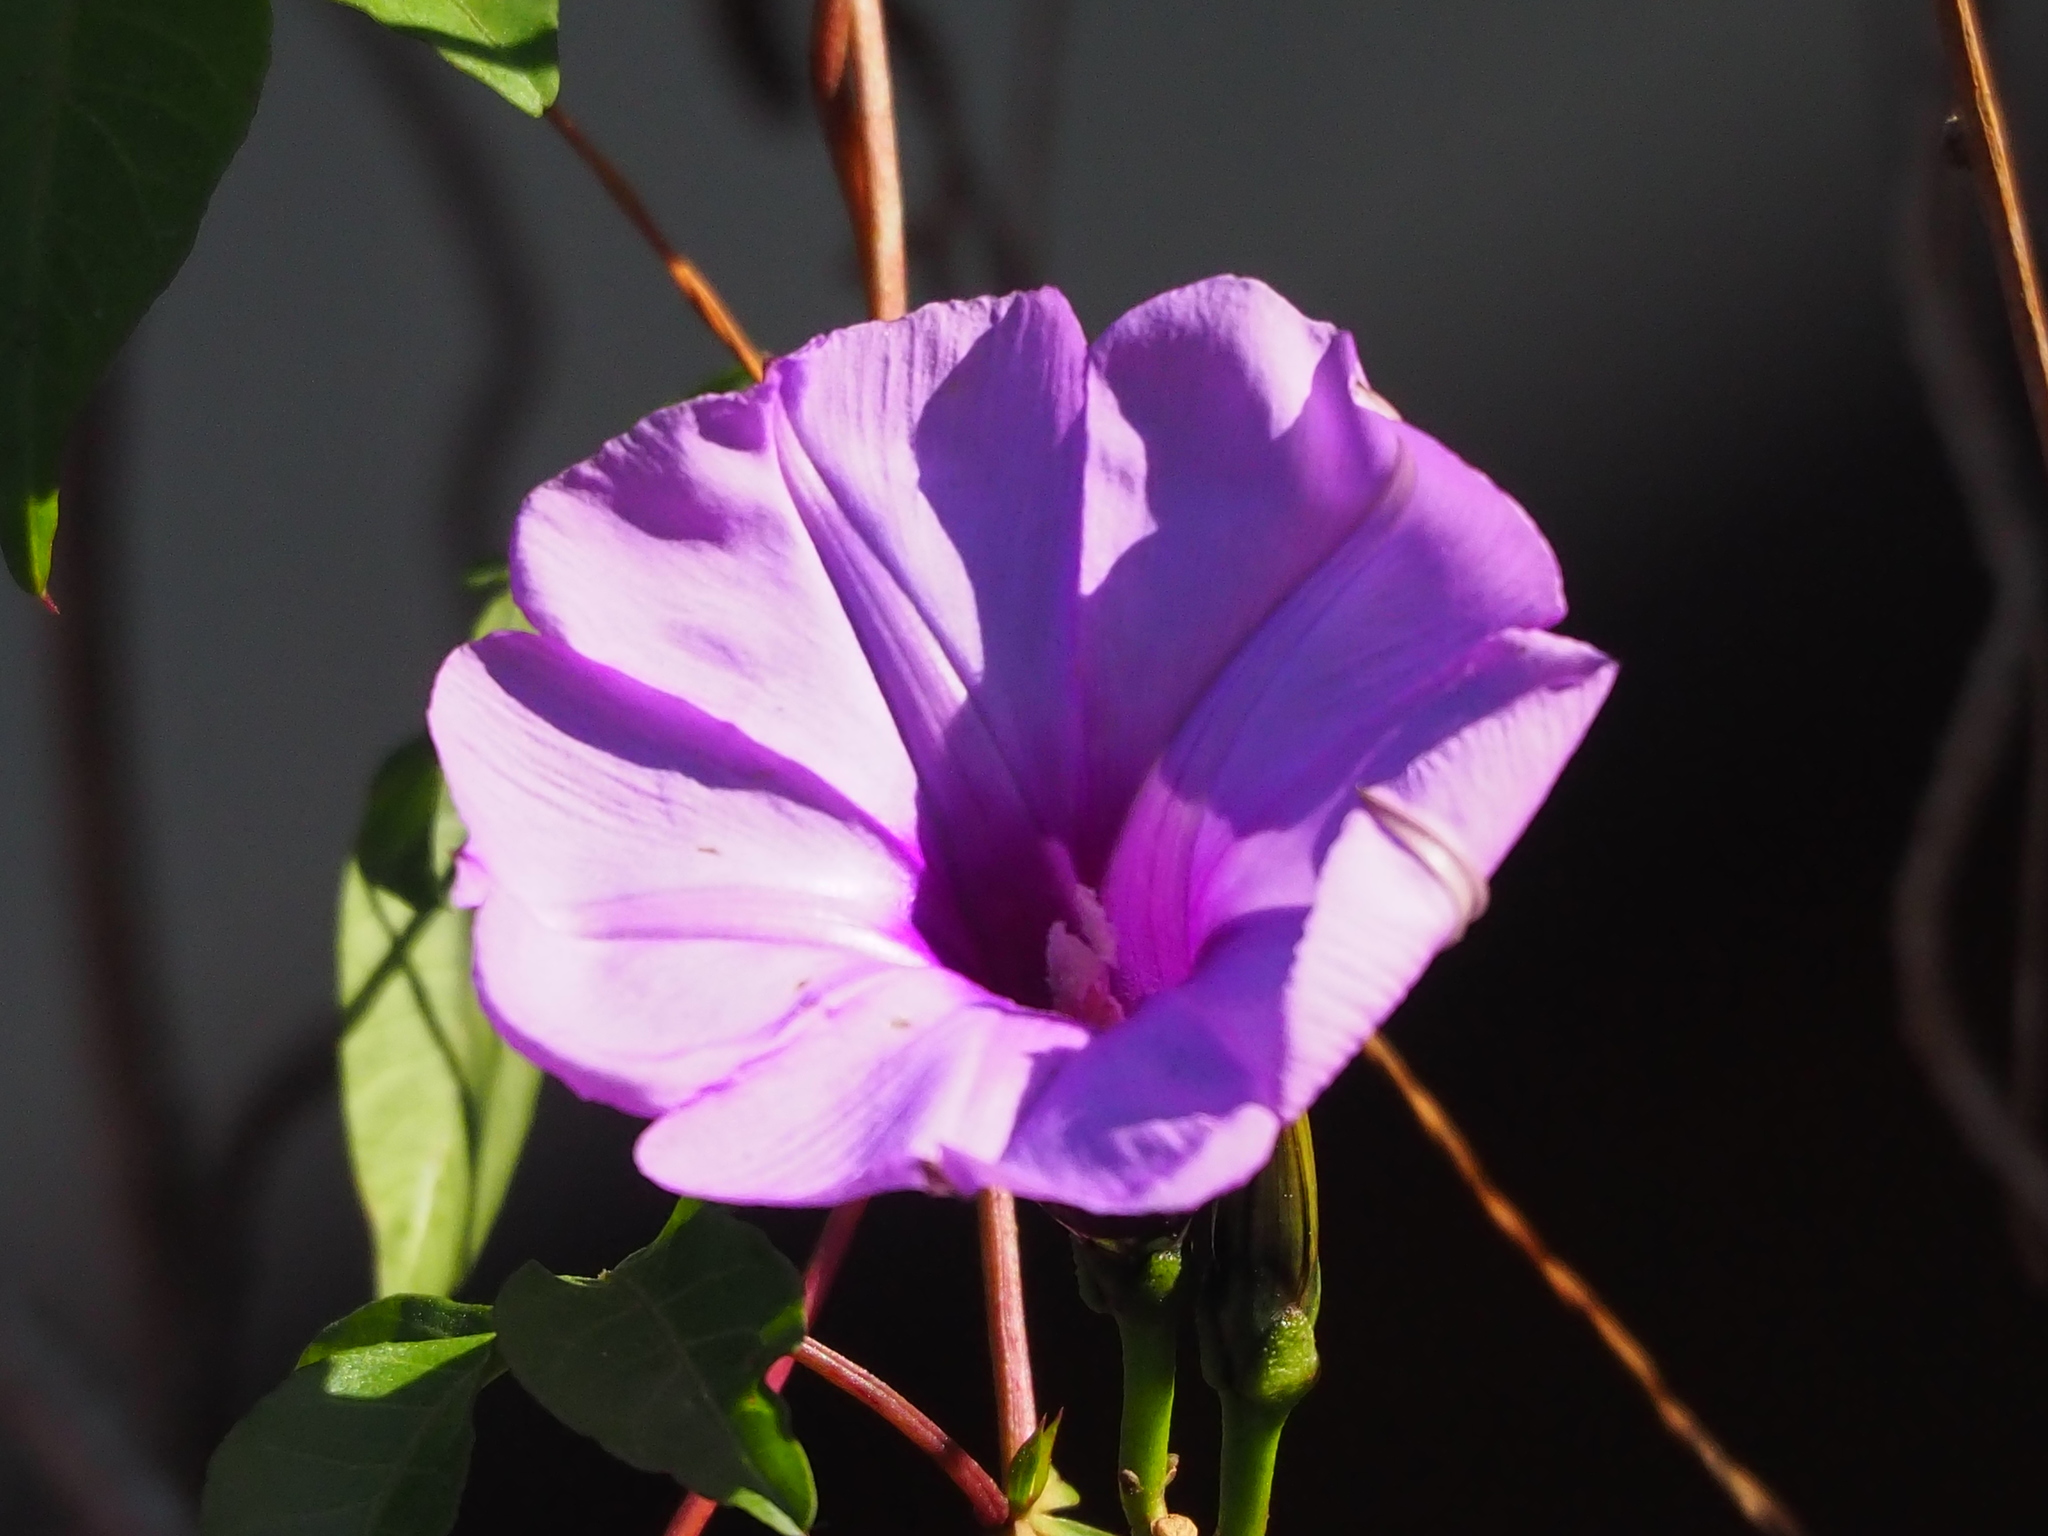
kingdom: Plantae
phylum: Tracheophyta
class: Magnoliopsida
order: Solanales
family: Convolvulaceae
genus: Ipomoea
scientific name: Ipomoea cairica
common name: Mile a minute vine
